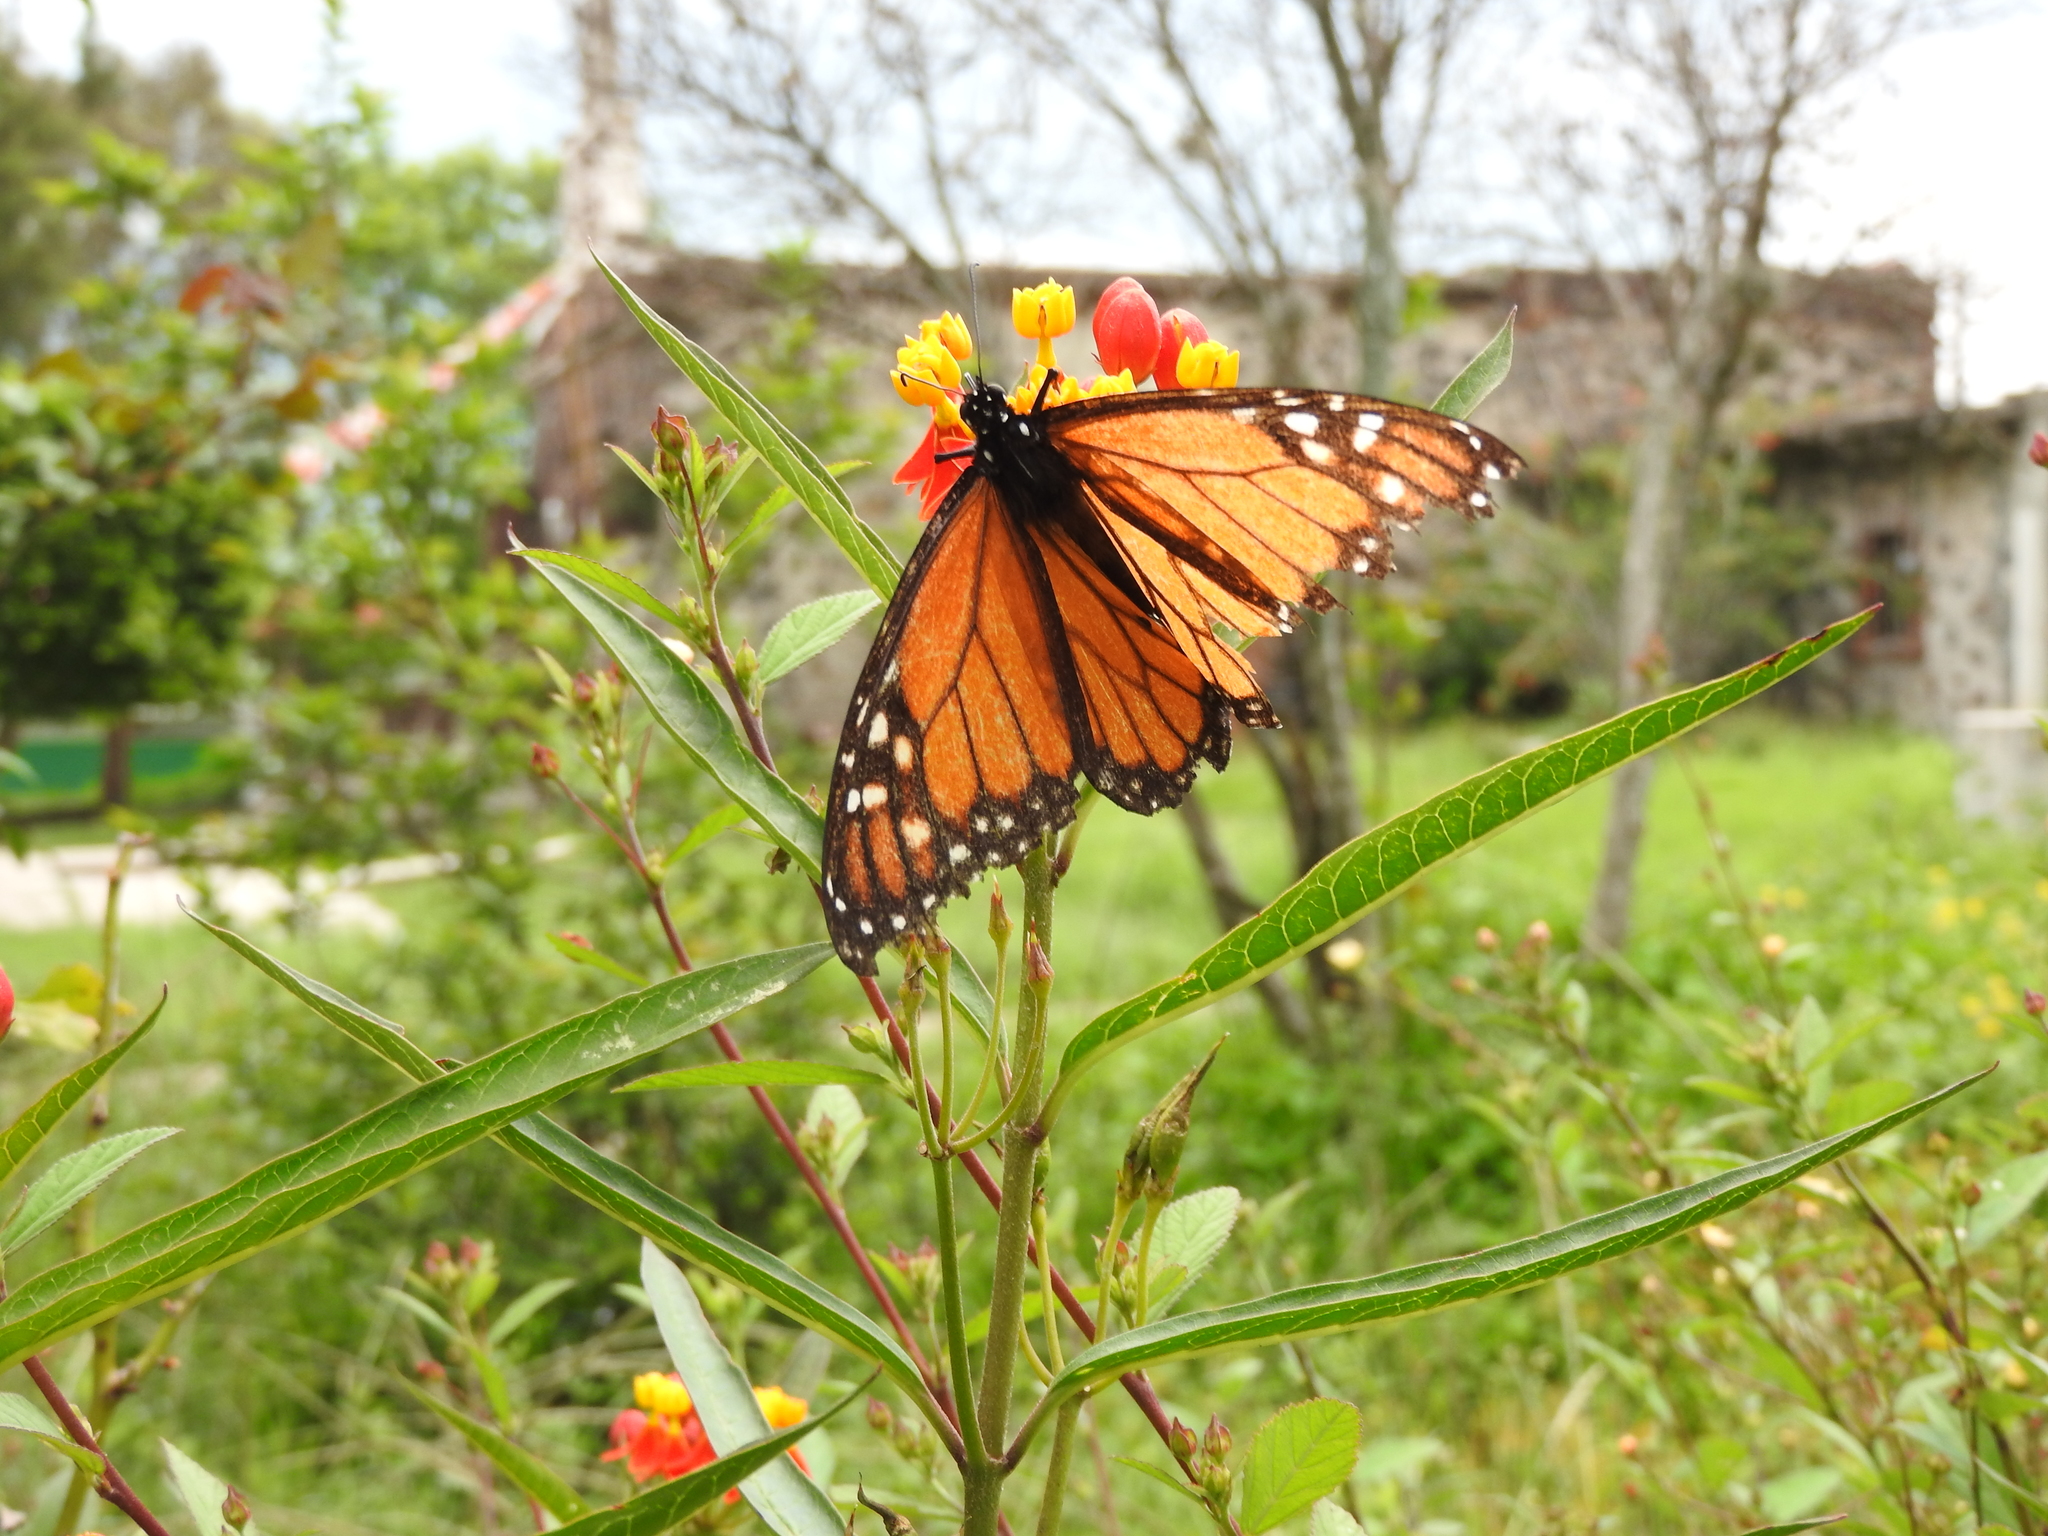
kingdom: Animalia
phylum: Arthropoda
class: Insecta
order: Lepidoptera
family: Nymphalidae
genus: Danaus
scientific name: Danaus plexippus
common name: Monarch
